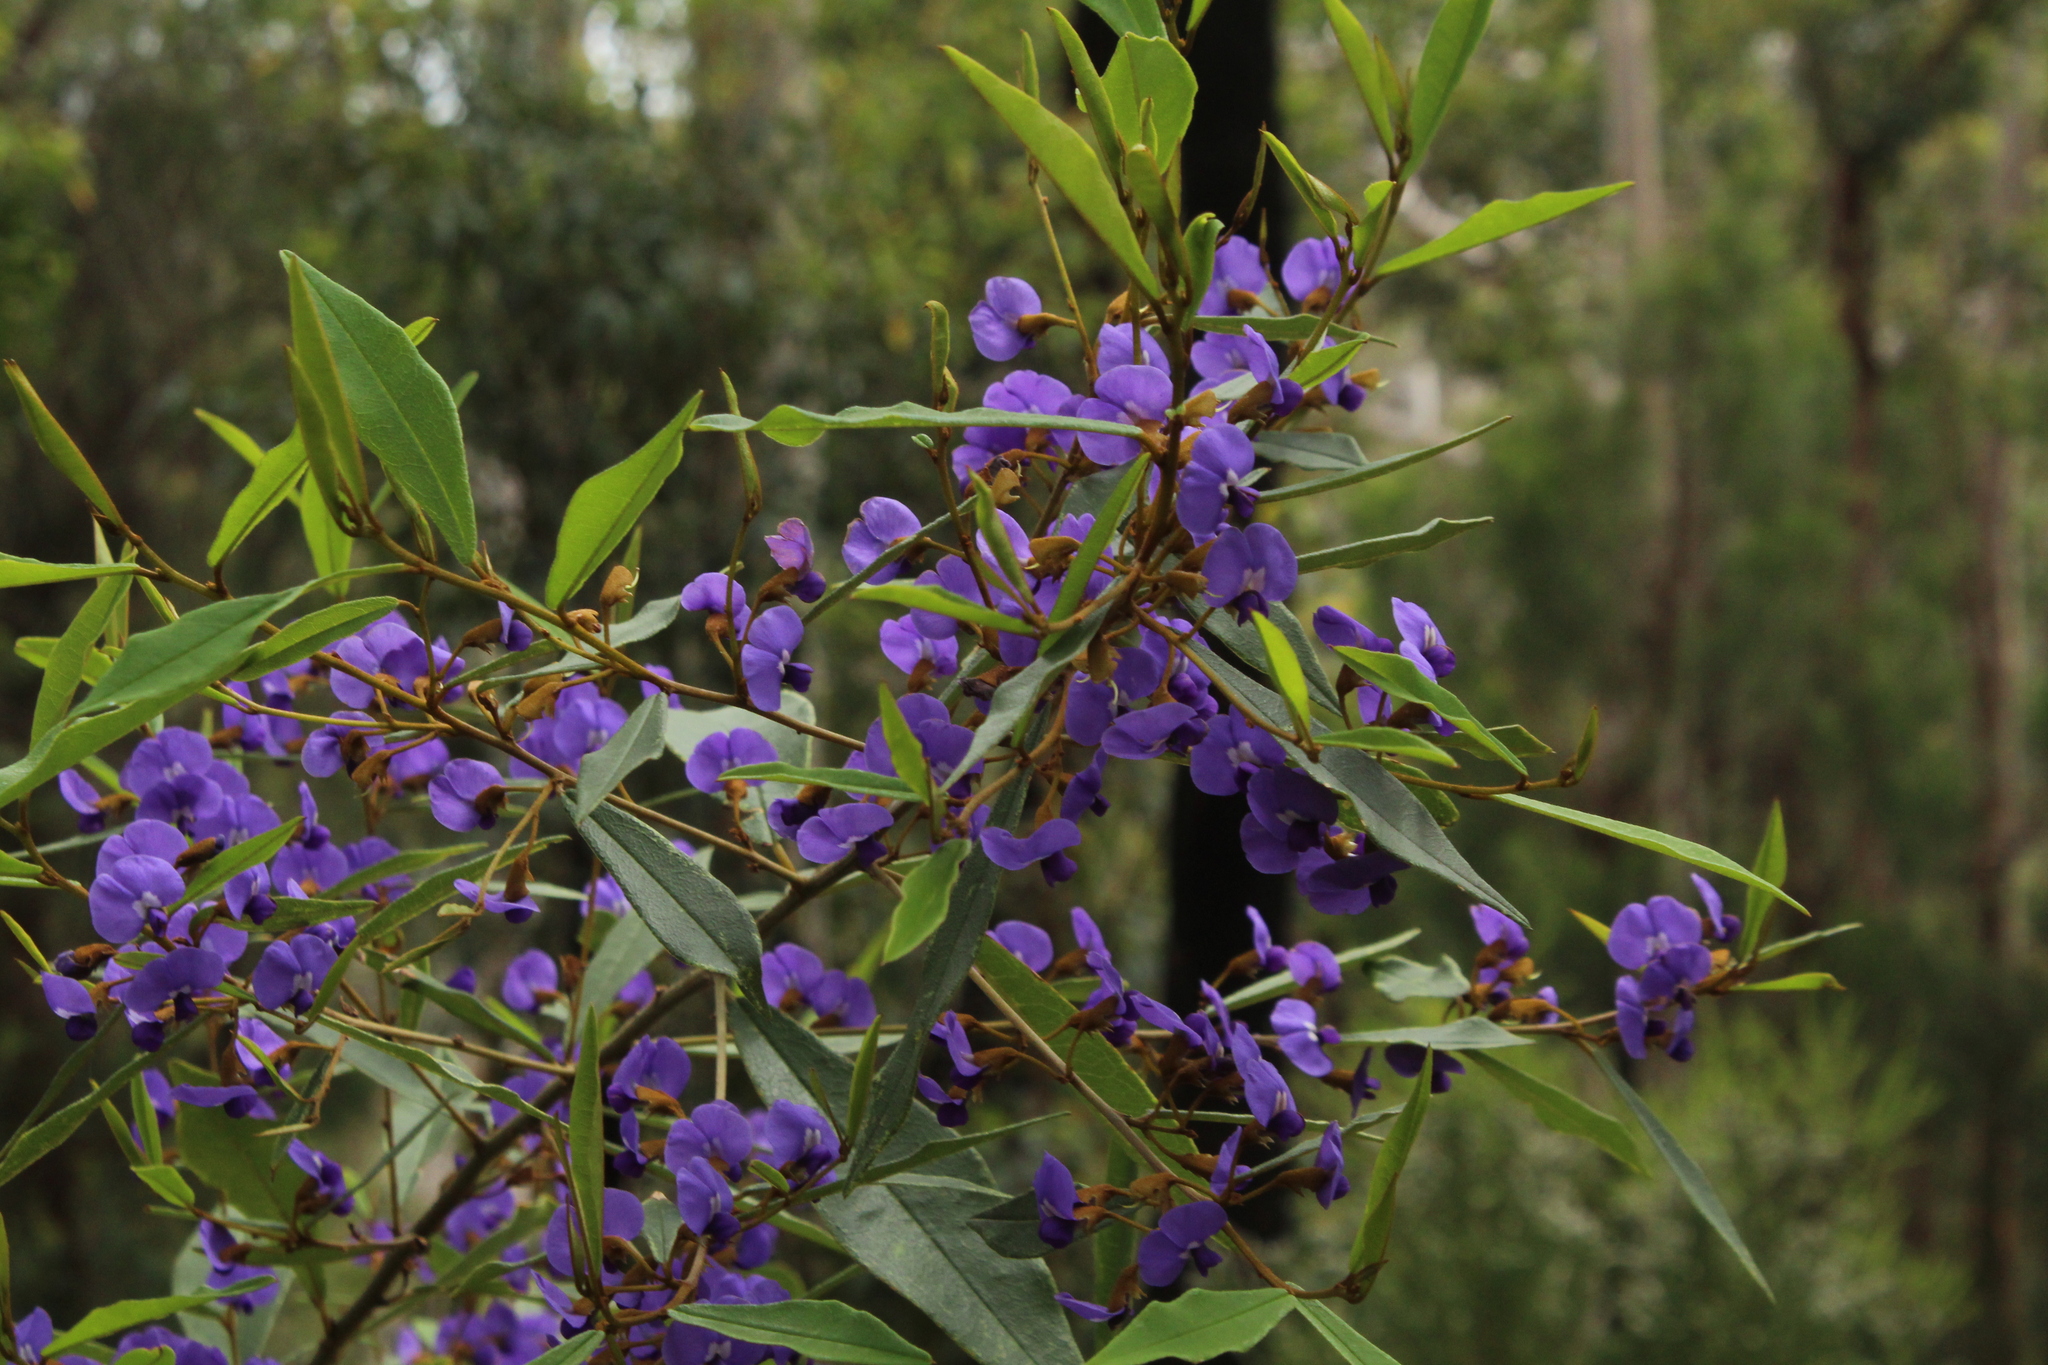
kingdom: Plantae
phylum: Tracheophyta
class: Magnoliopsida
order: Fabales
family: Fabaceae
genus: Hovea
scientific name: Hovea elliptica
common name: Tree hovea
